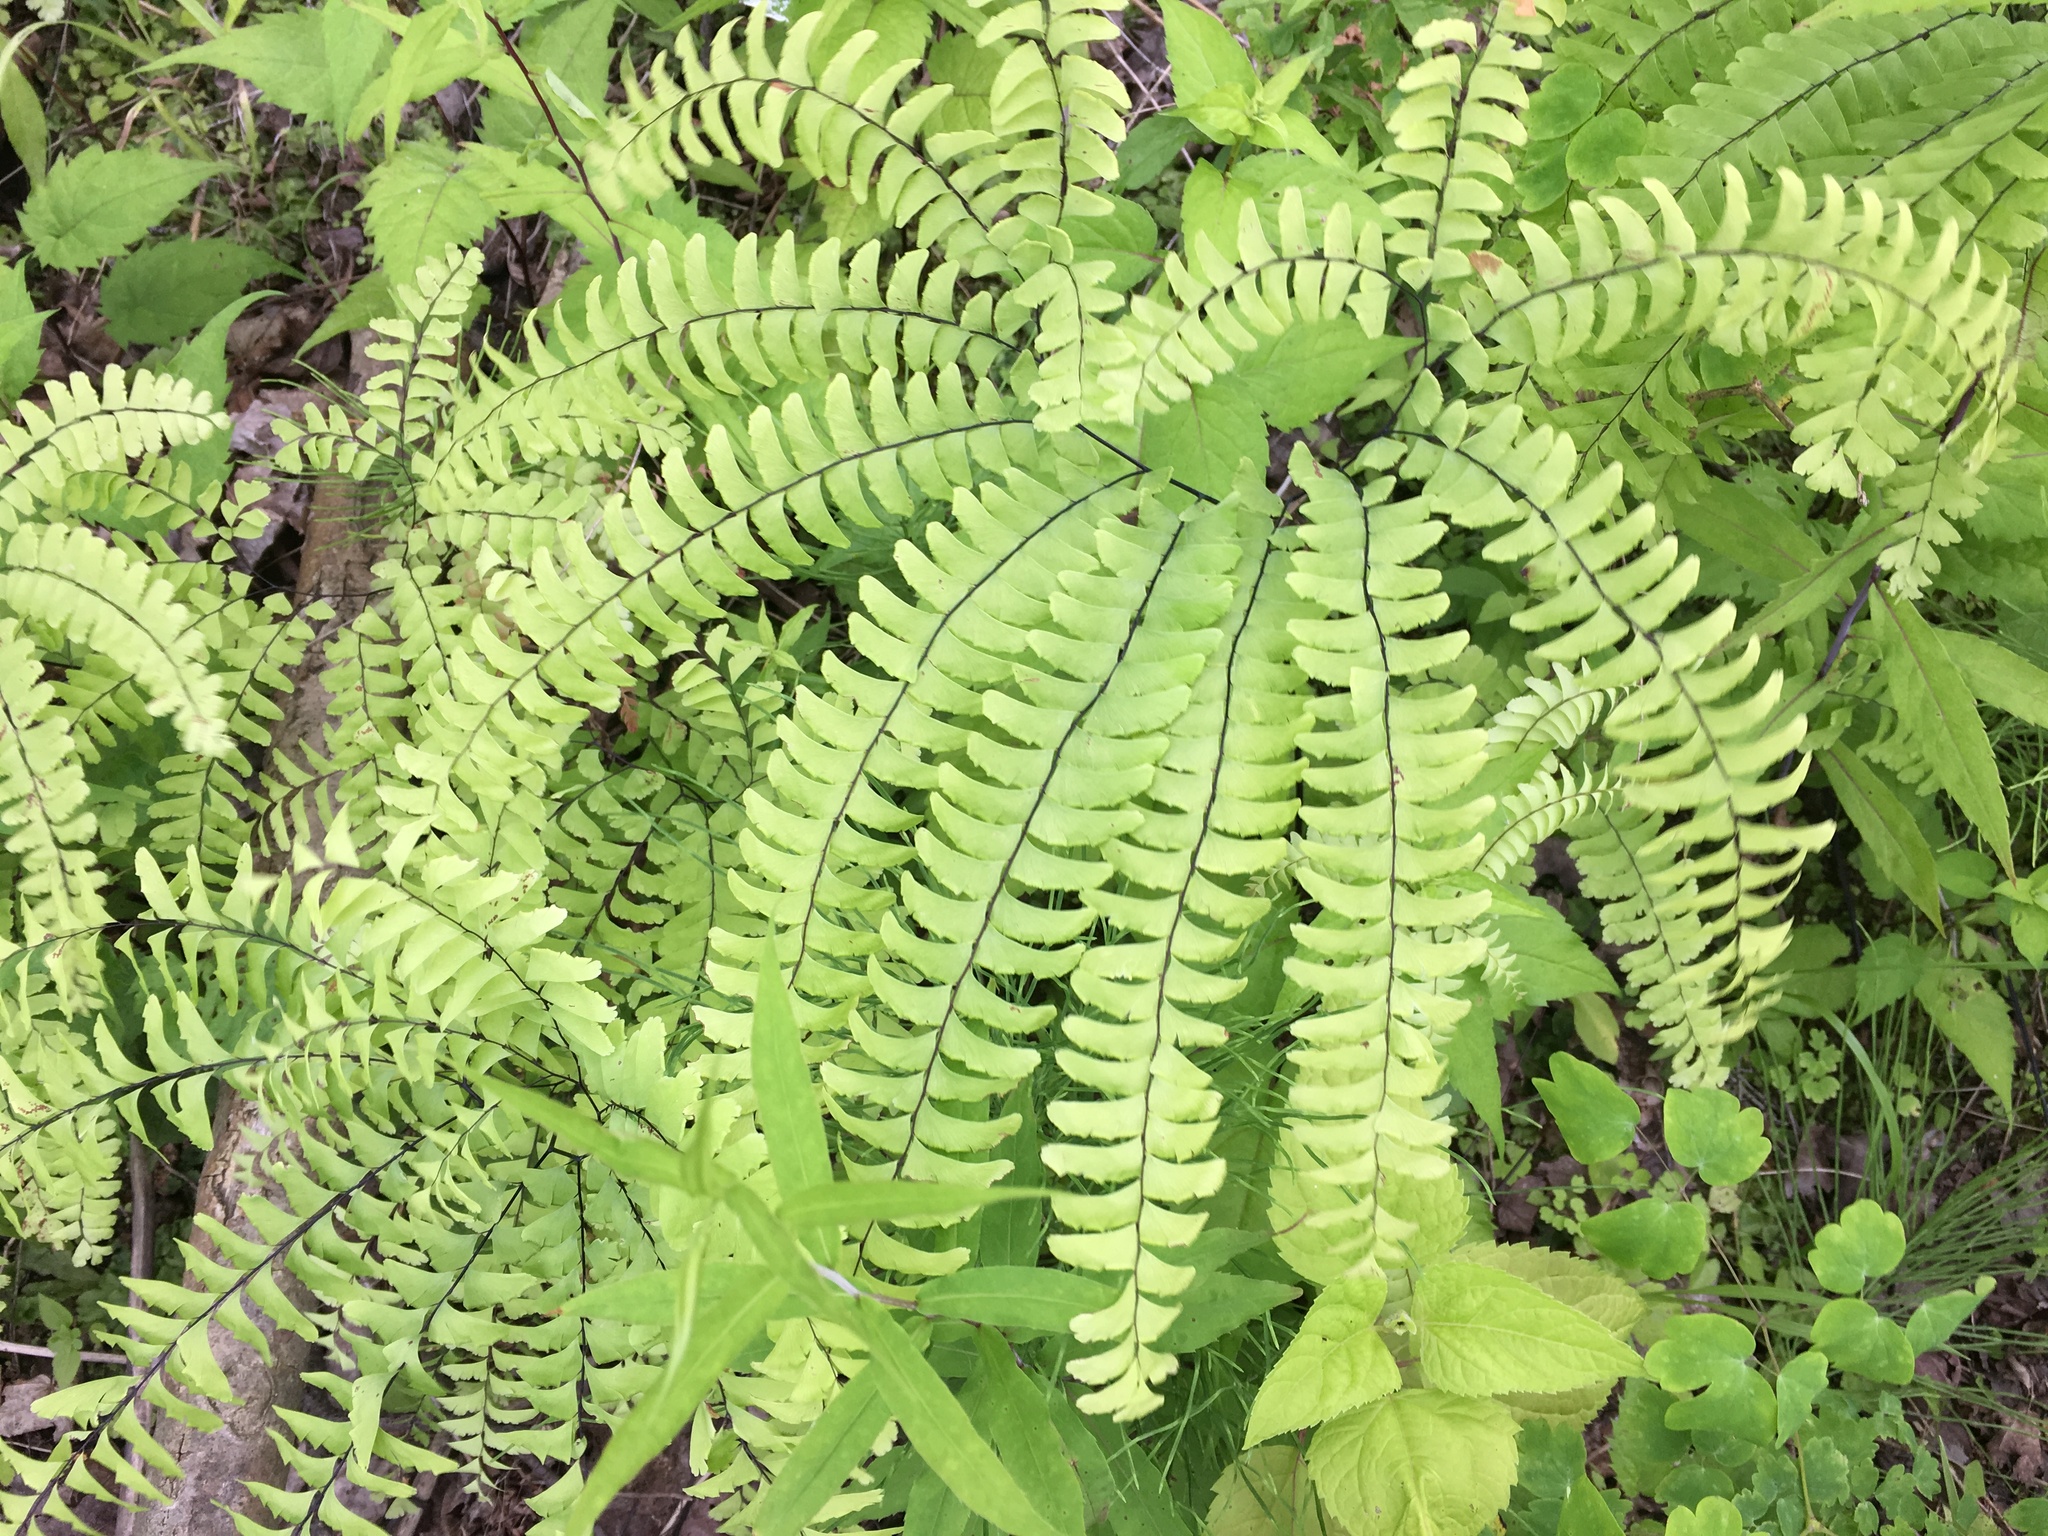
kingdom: Plantae
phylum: Tracheophyta
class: Polypodiopsida
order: Polypodiales
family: Pteridaceae
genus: Adiantum
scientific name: Adiantum pedatum
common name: Five-finger fern
